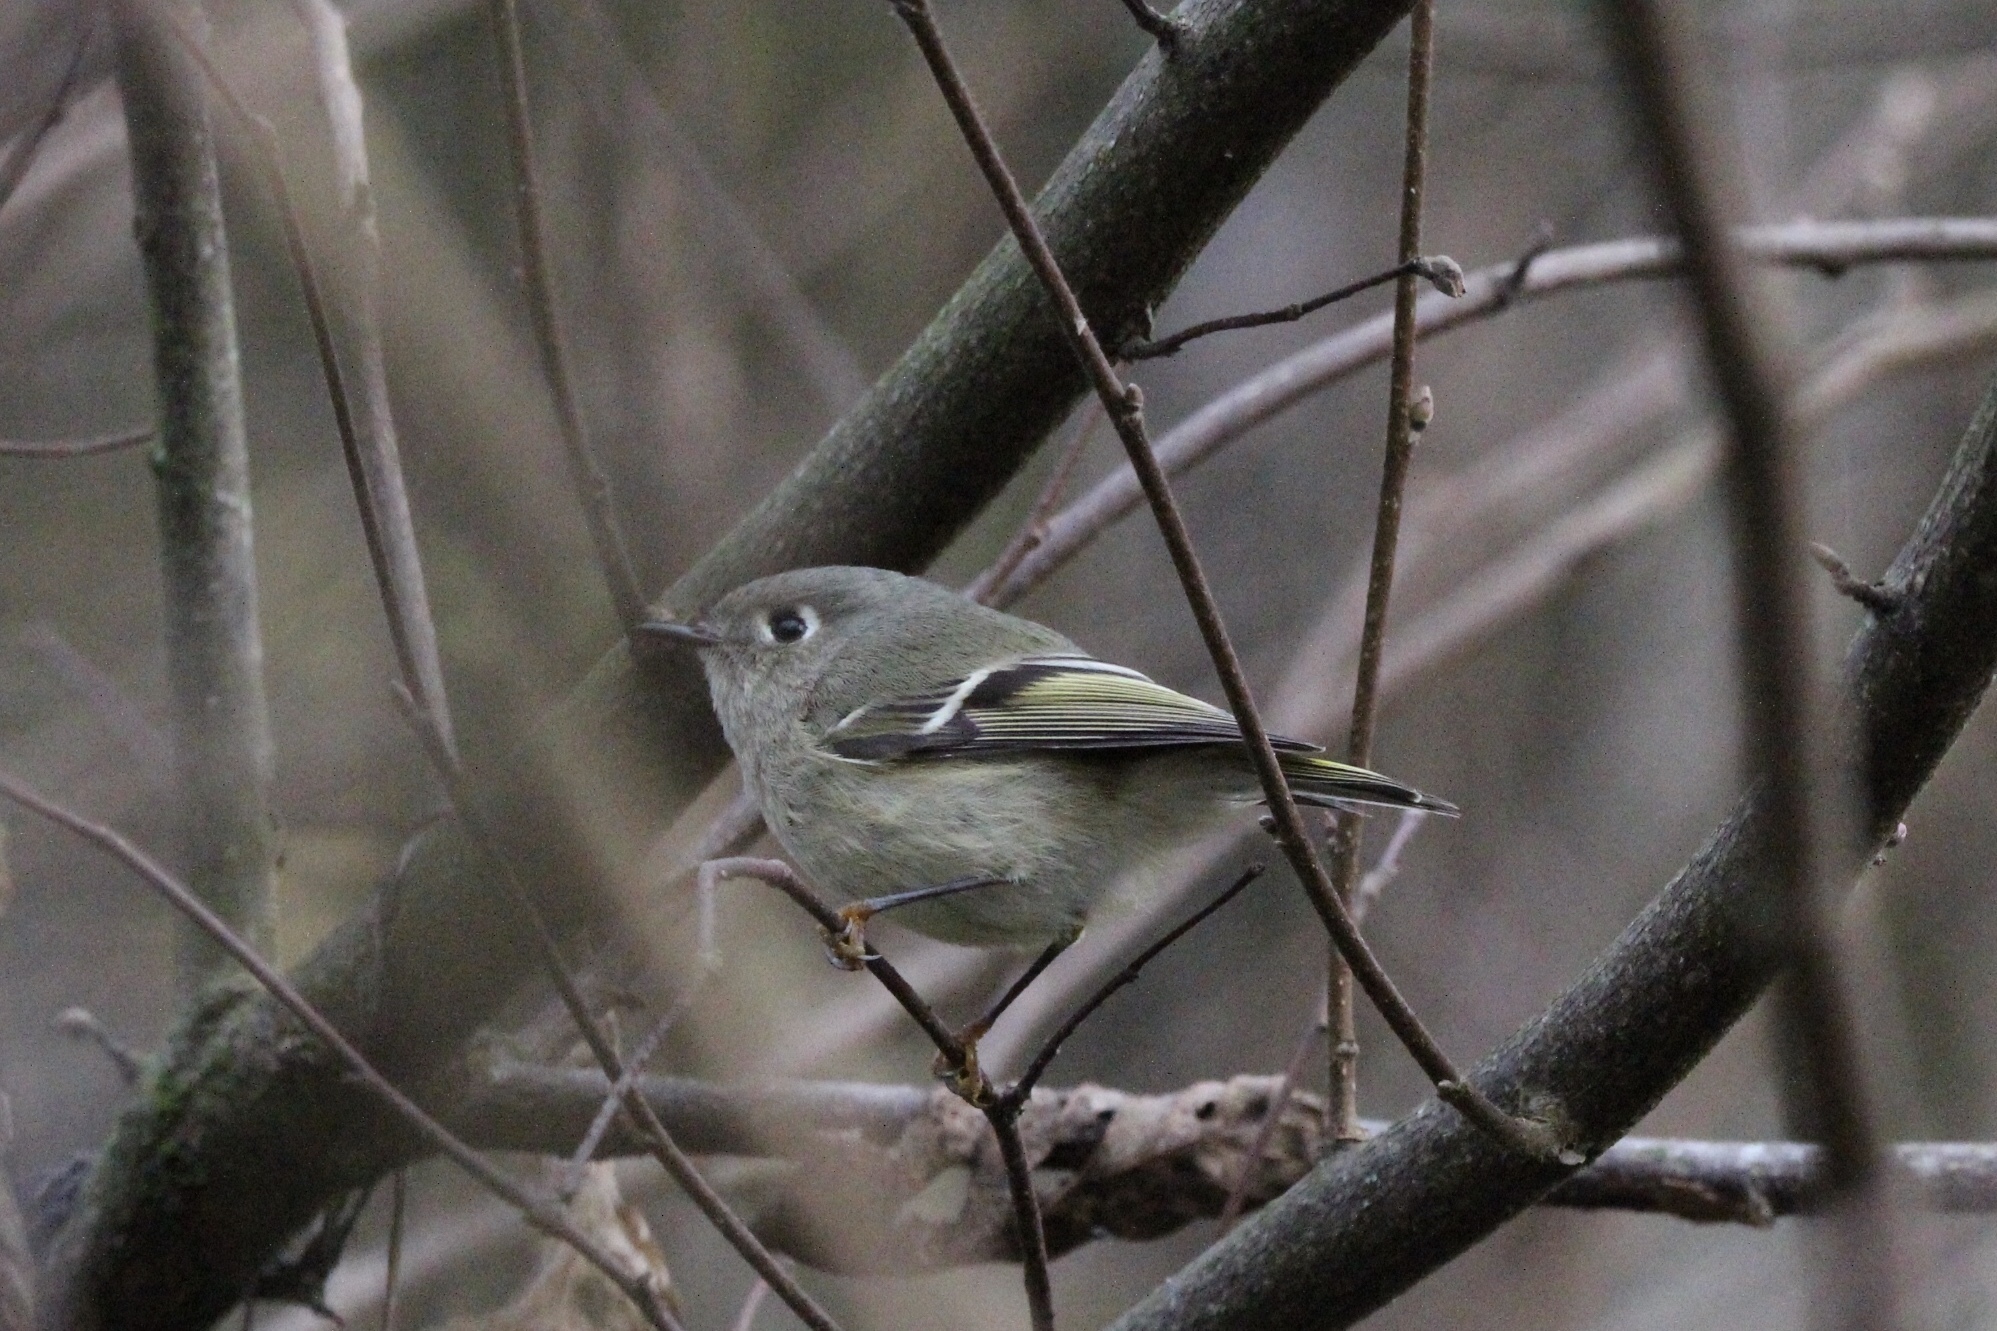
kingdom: Animalia
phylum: Chordata
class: Aves
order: Passeriformes
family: Regulidae
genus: Regulus
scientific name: Regulus calendula
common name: Ruby-crowned kinglet
